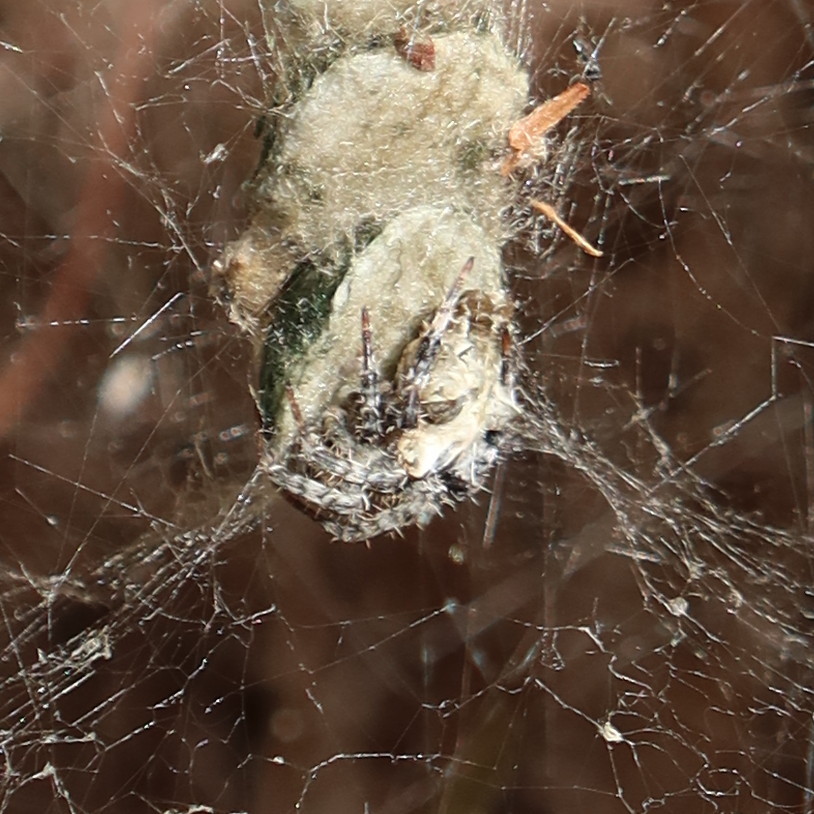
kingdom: Animalia
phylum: Arthropoda
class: Arachnida
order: Araneae
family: Araneidae
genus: Cyrtophora
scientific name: Cyrtophora citricola
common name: Orb weavers
